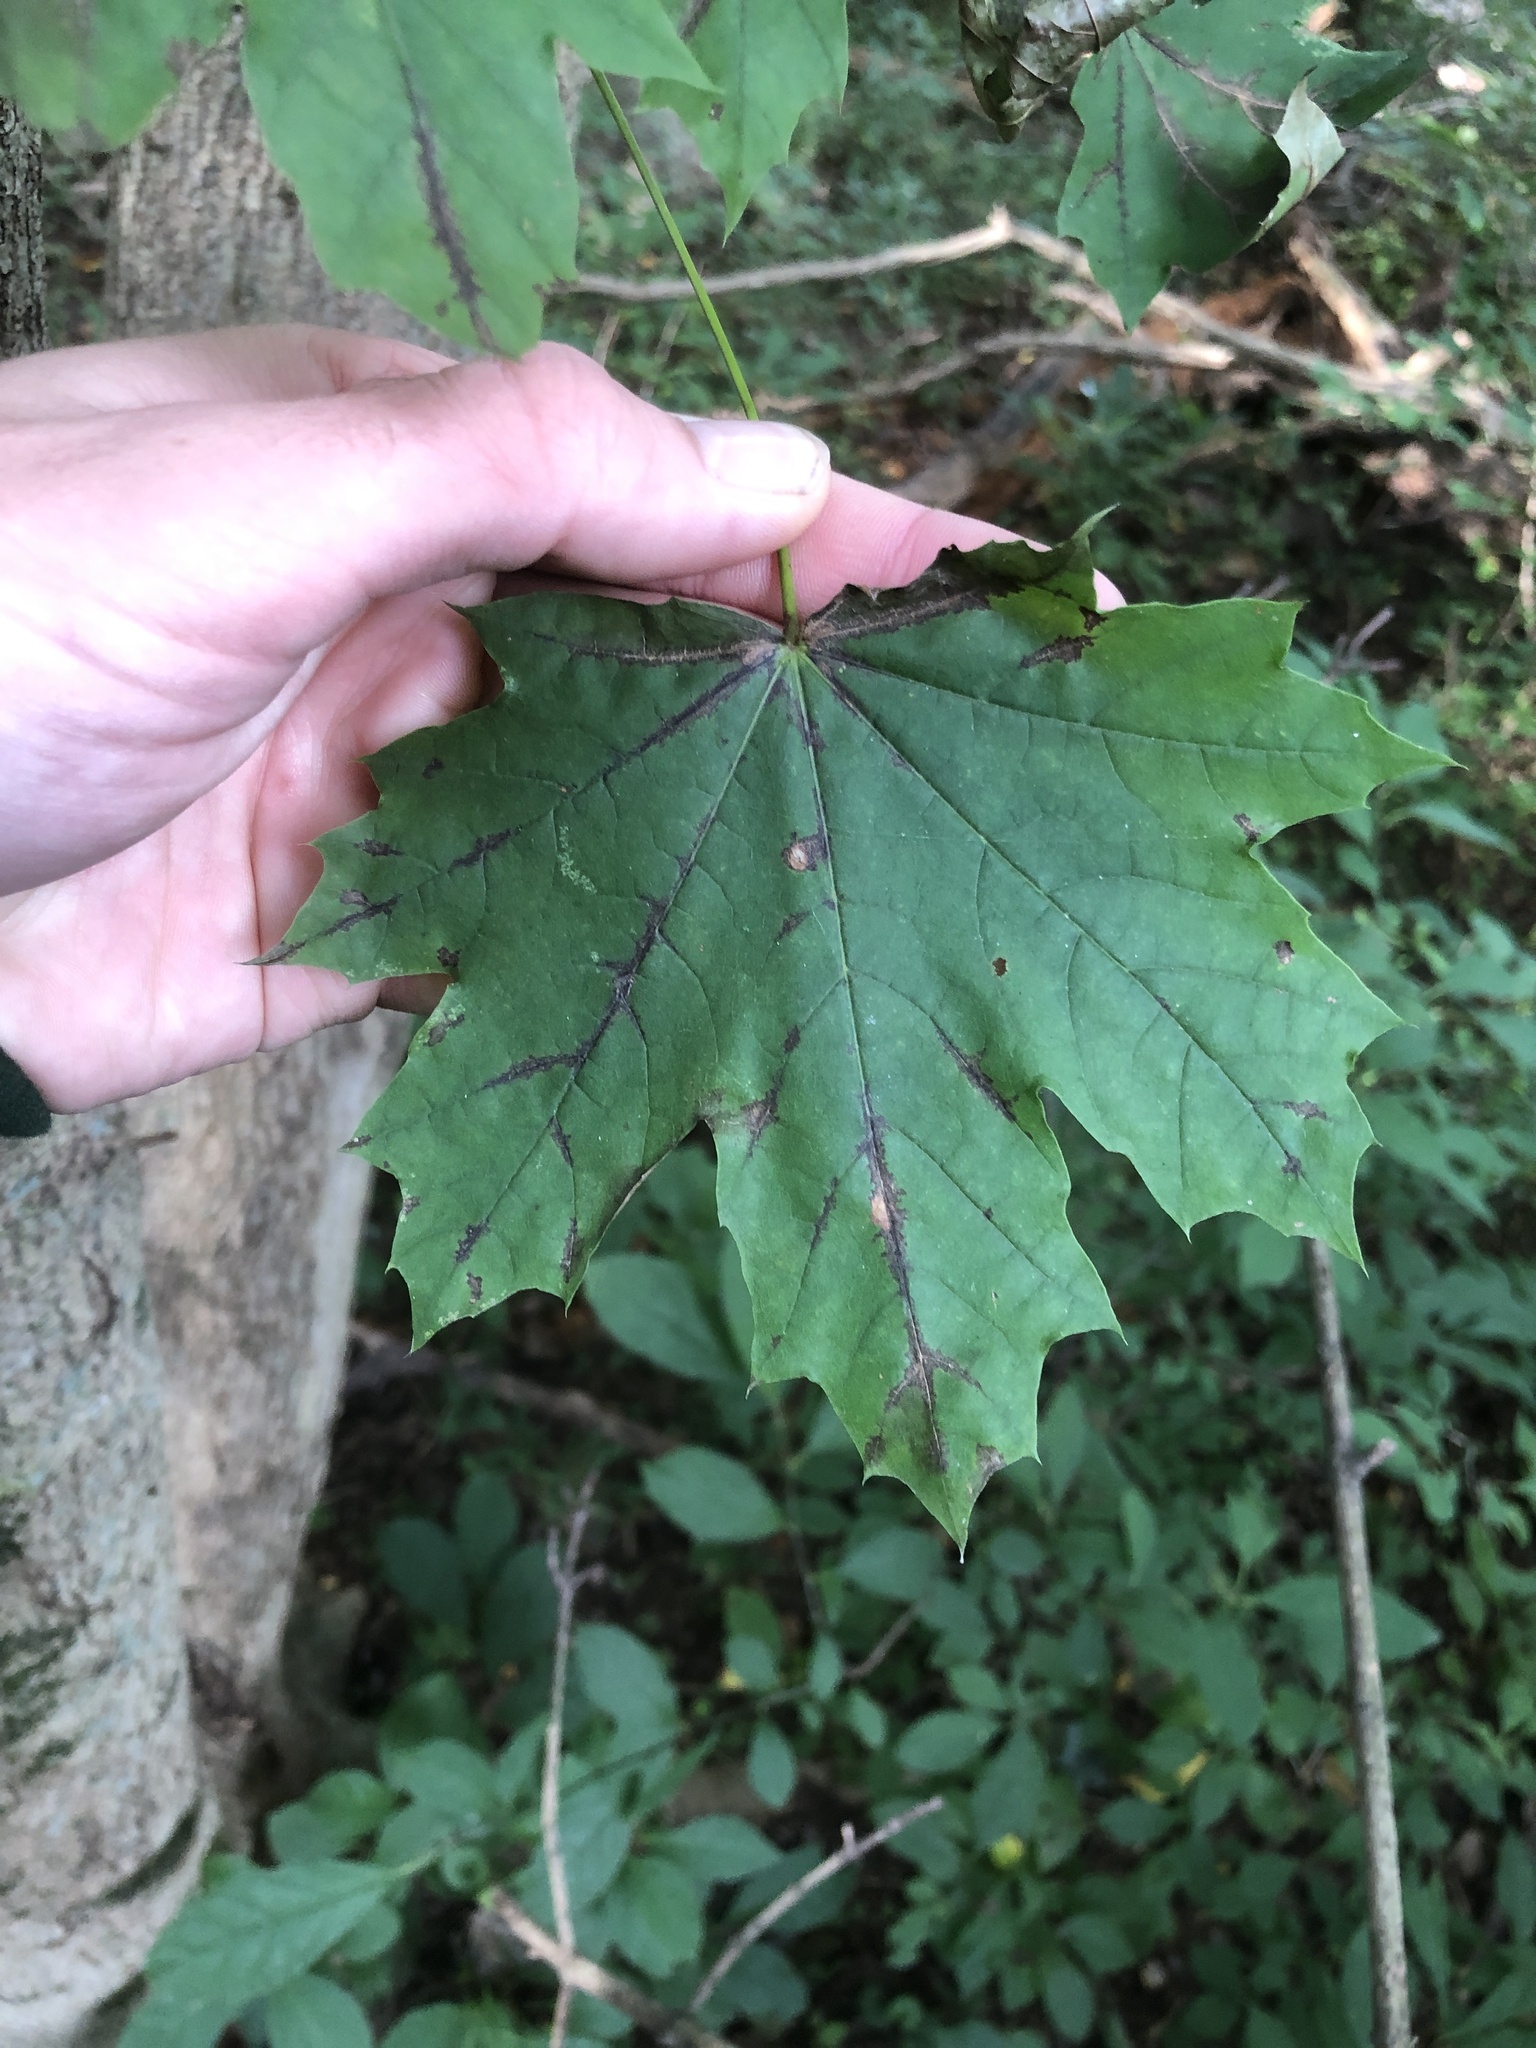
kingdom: Plantae
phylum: Tracheophyta
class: Magnoliopsida
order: Sapindales
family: Sapindaceae
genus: Acer
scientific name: Acer platanoides
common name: Norway maple
